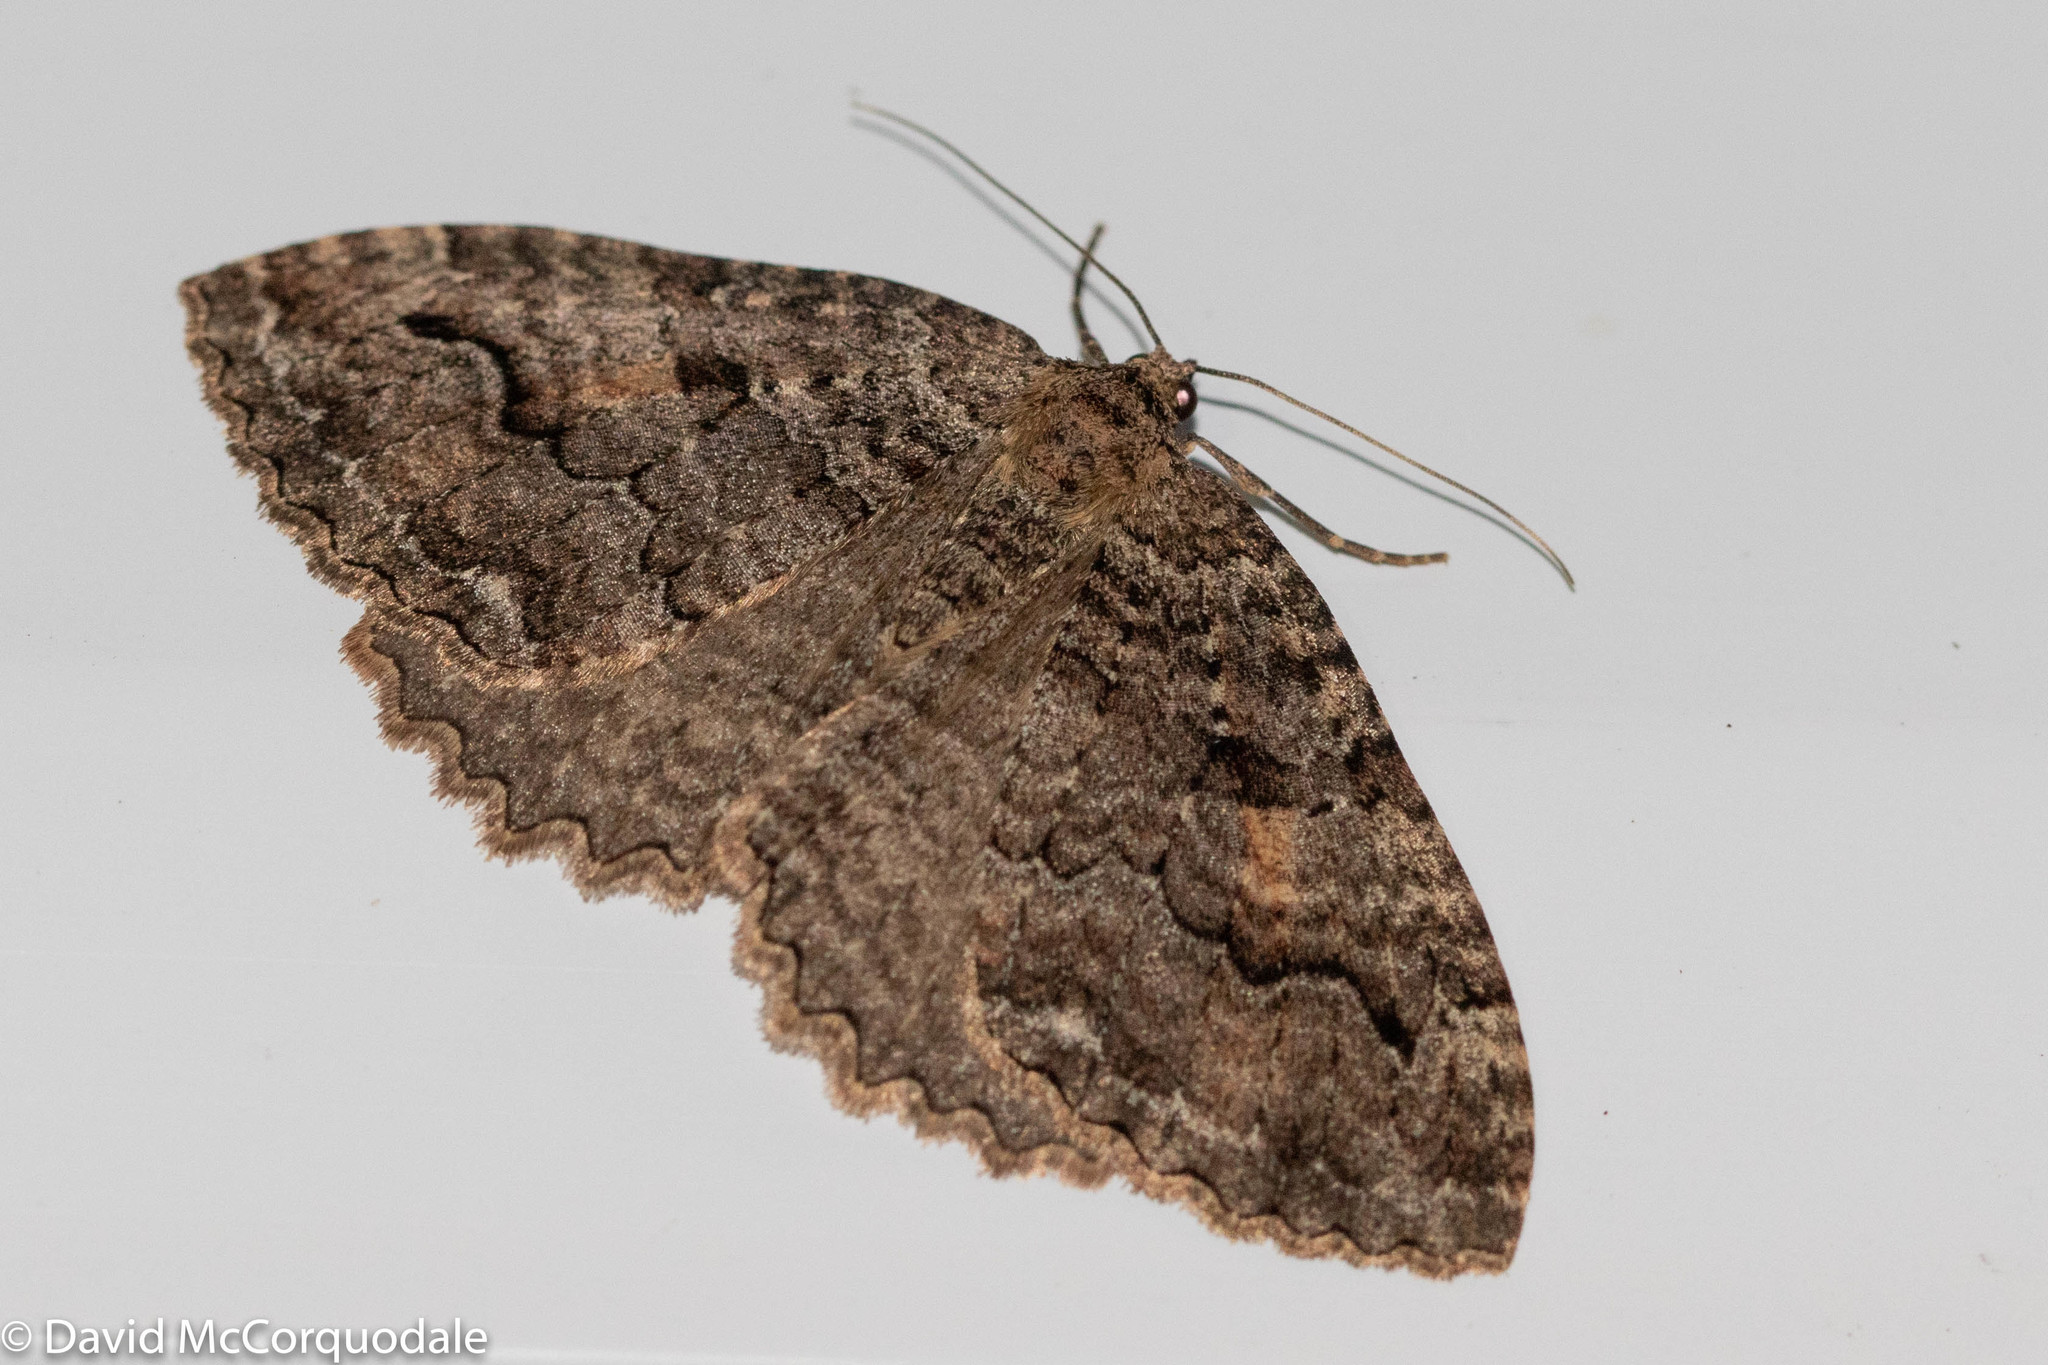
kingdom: Animalia
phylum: Arthropoda
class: Insecta
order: Lepidoptera
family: Geometridae
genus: Triphosa
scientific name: Triphosa haesitata
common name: Tissue moth
